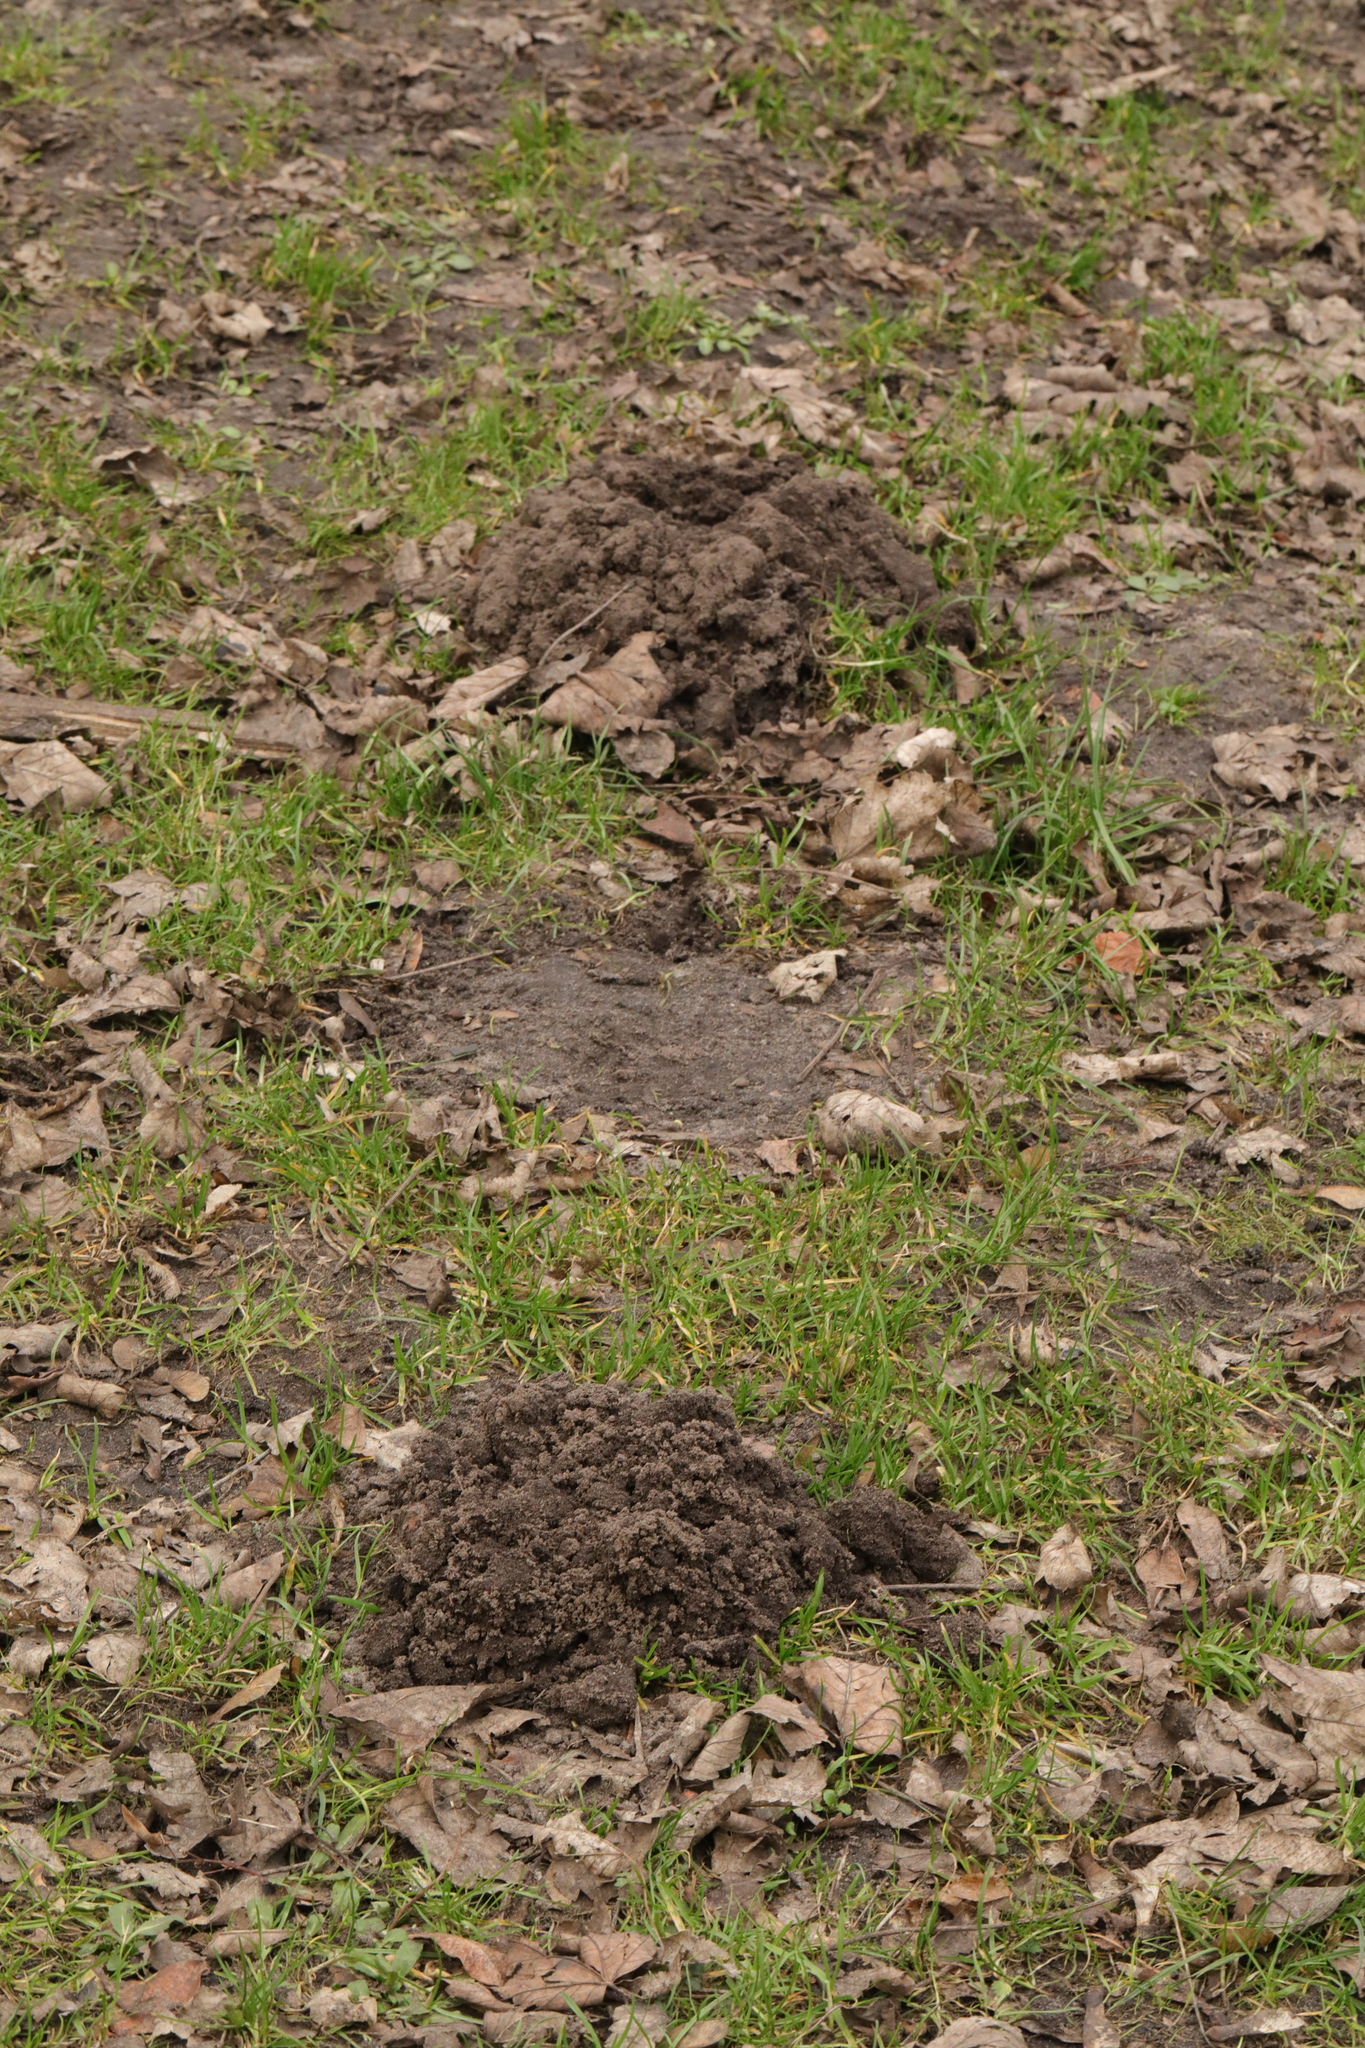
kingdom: Animalia
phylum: Chordata
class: Mammalia
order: Soricomorpha
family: Talpidae
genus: Talpa
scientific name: Talpa europaea
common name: European mole
